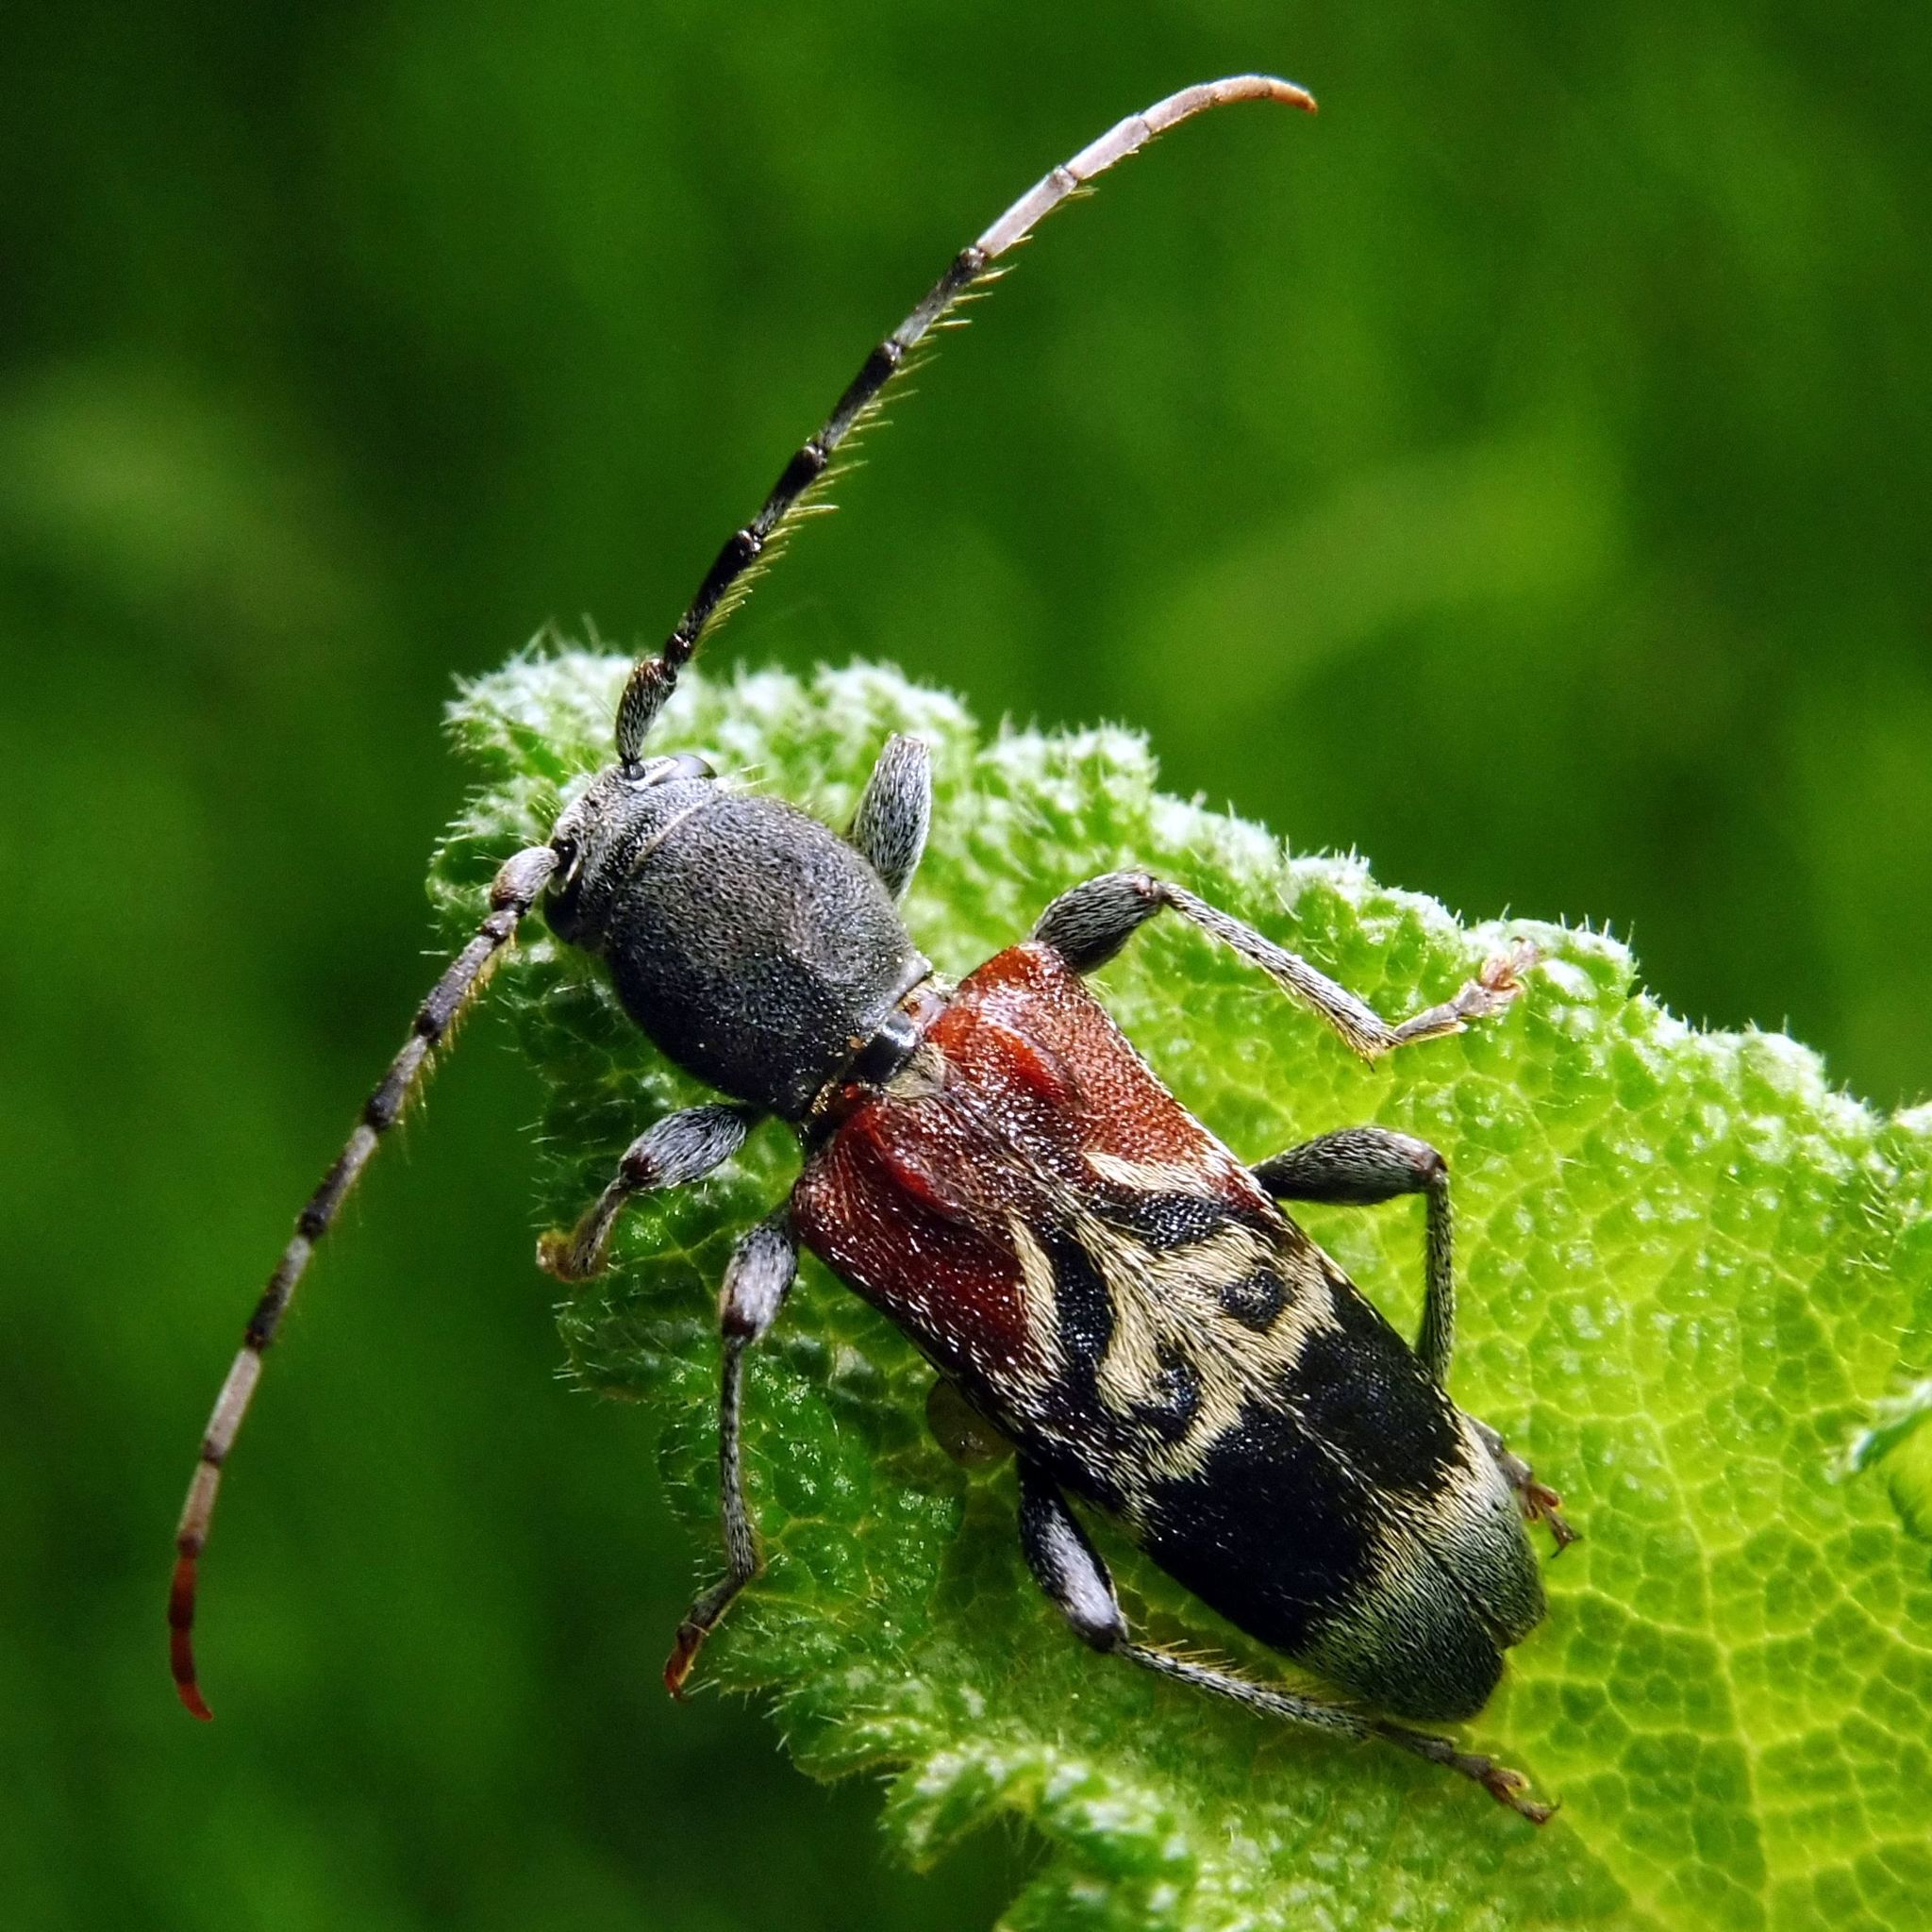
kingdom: Animalia
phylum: Arthropoda
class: Insecta
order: Coleoptera
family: Cerambycidae
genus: Anaglyptus
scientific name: Anaglyptus mysticus
